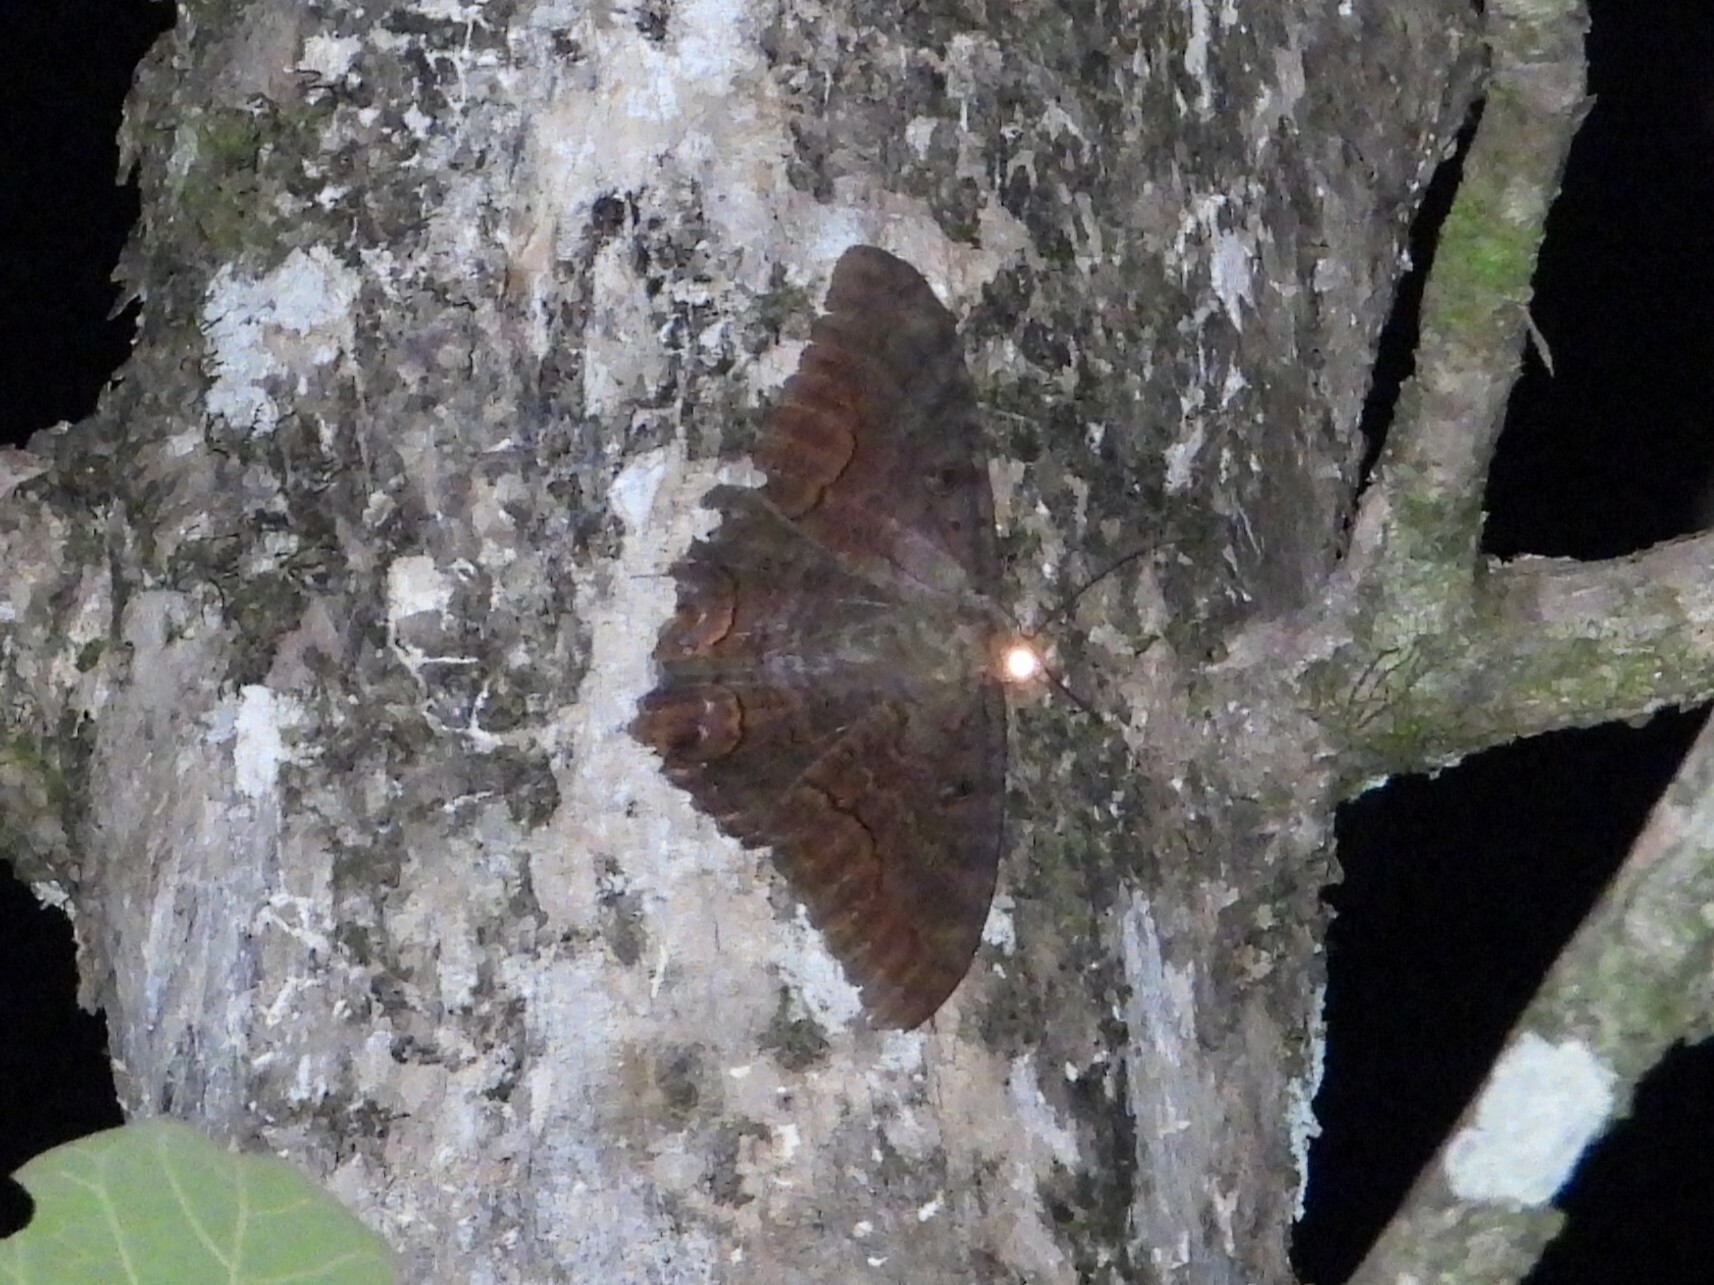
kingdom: Animalia
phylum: Arthropoda
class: Insecta
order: Lepidoptera
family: Erebidae
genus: Ascalapha
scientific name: Ascalapha odorata
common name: Black witch
